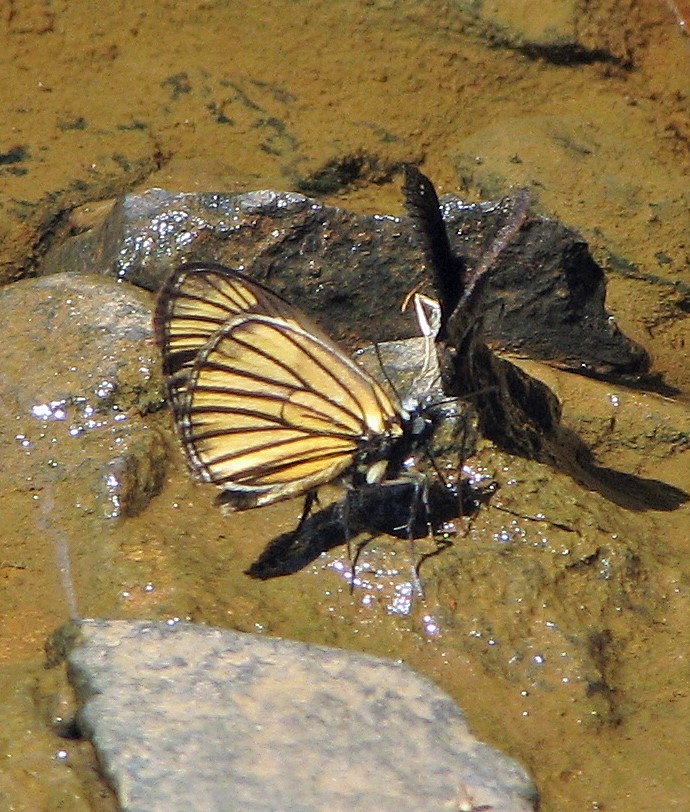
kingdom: Animalia
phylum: Arthropoda
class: Insecta
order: Lepidoptera
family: Hesperiidae
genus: Heliopetes
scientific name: Heliopetes purgia
